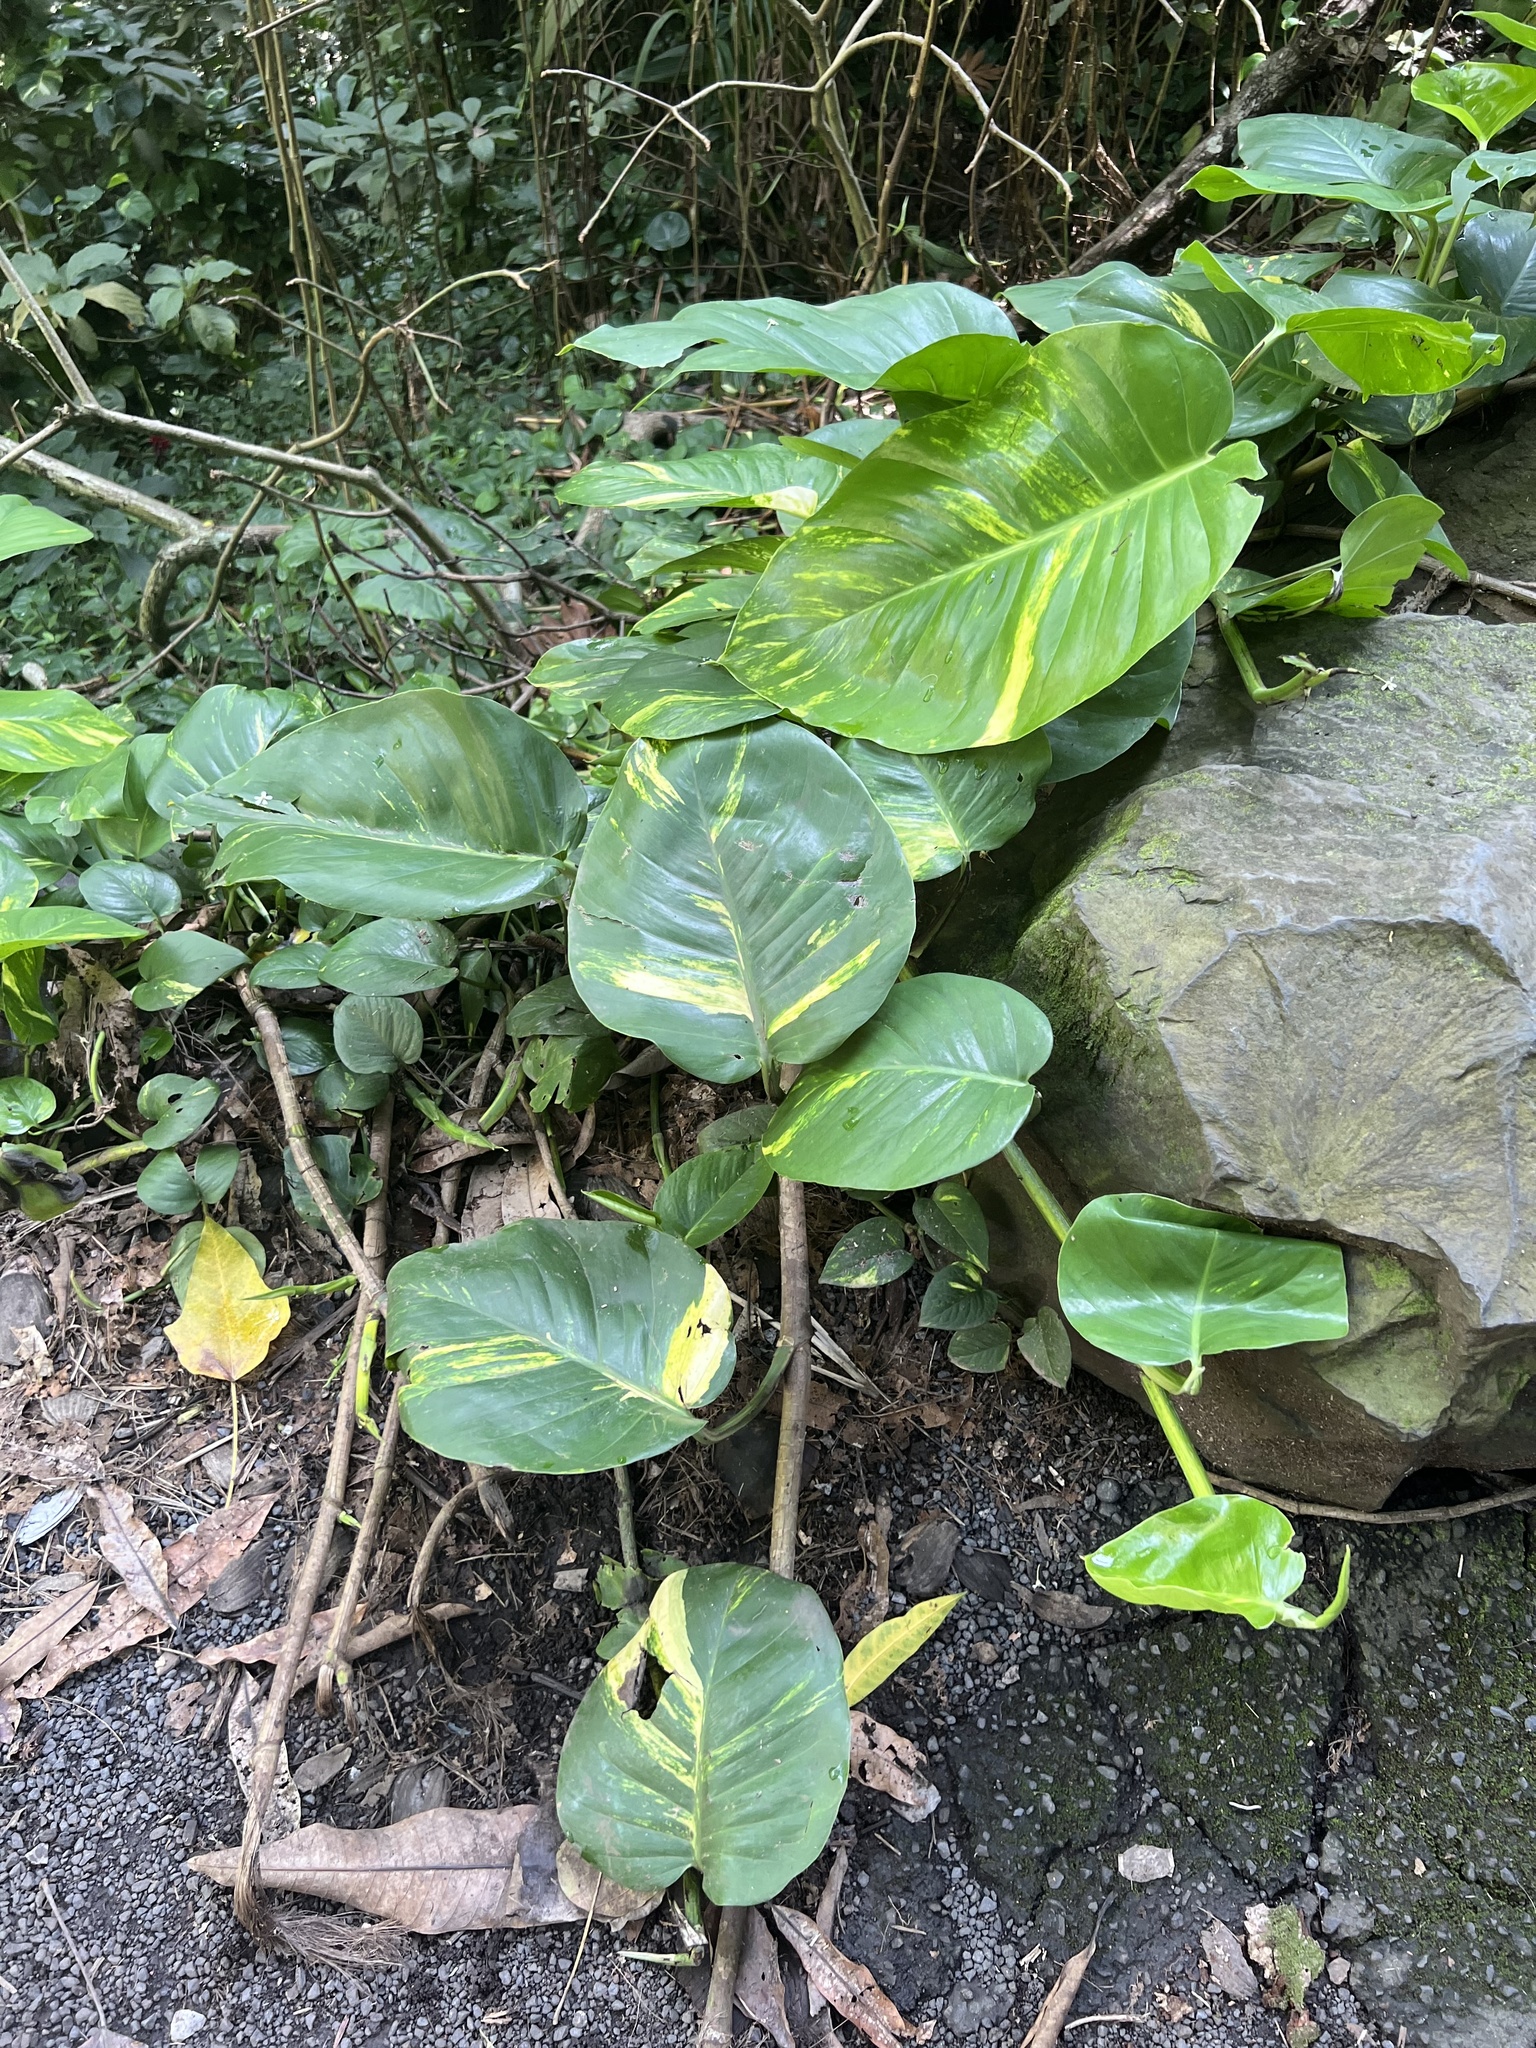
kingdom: Plantae
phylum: Tracheophyta
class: Liliopsida
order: Alismatales
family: Araceae
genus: Epipremnum
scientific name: Epipremnum aureum
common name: Golden hunter's-robe
